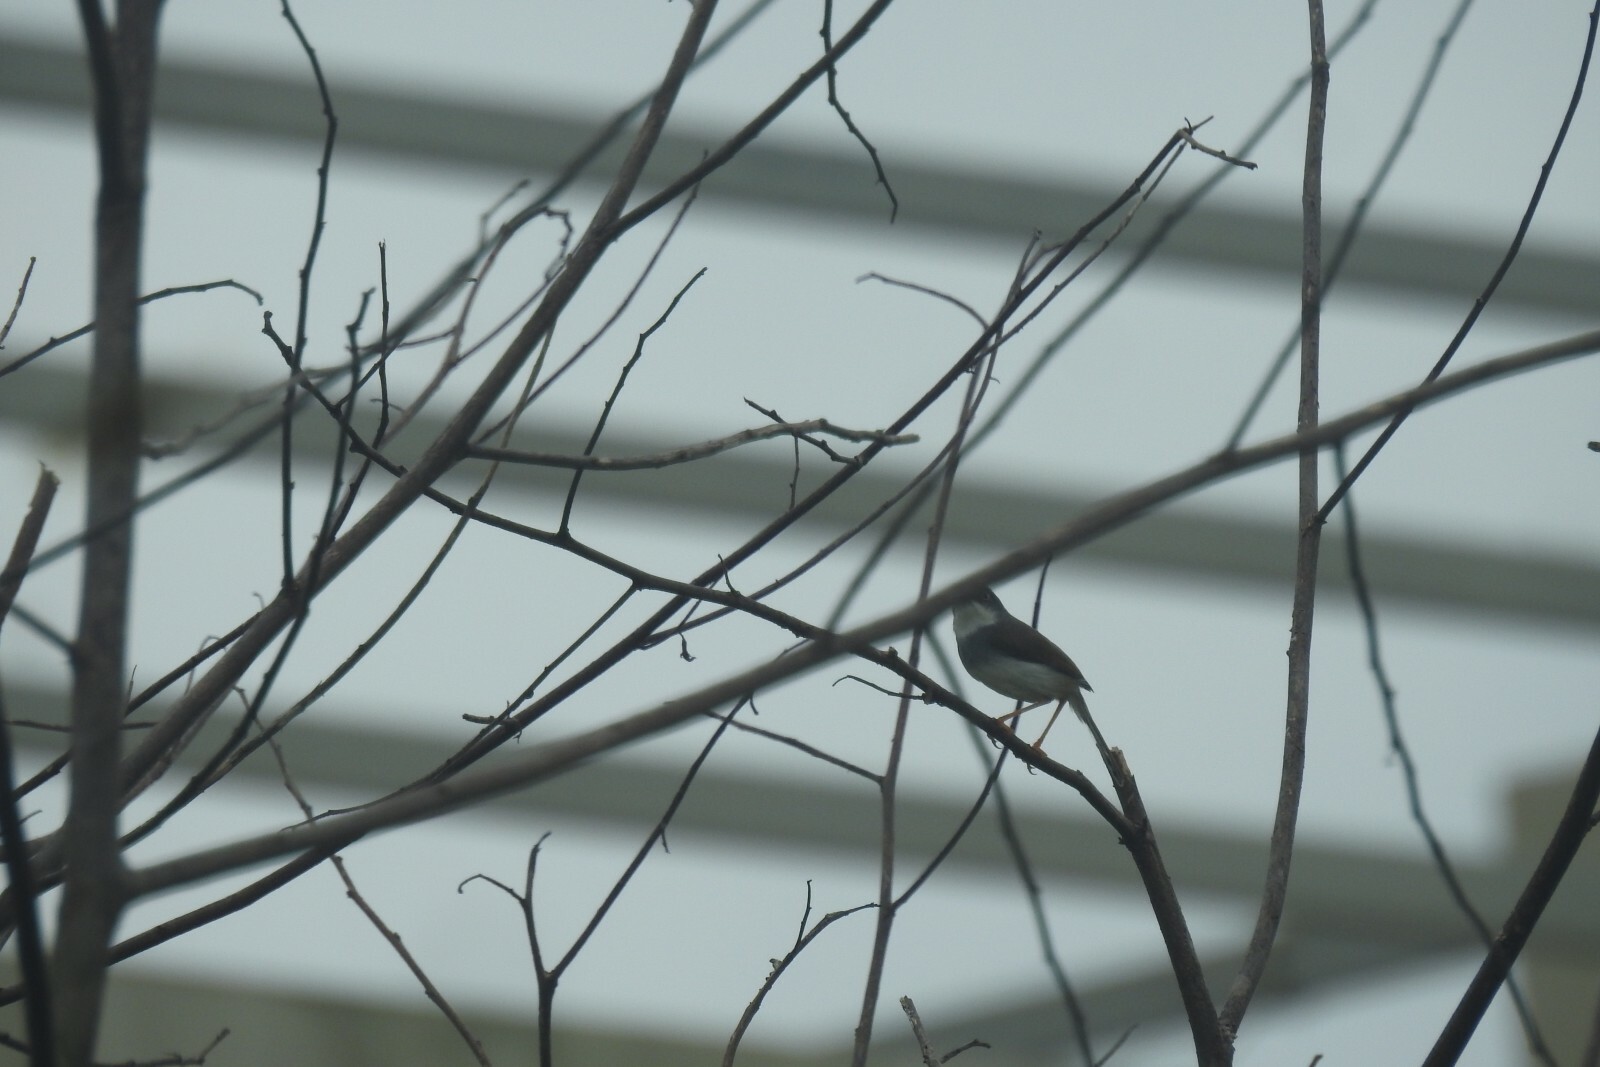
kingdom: Animalia
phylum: Chordata
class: Aves
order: Passeriformes
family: Cisticolidae
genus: Prinia
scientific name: Prinia hodgsonii
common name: Grey-breasted prinia
